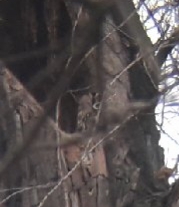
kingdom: Animalia
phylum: Chordata
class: Aves
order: Strigiformes
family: Strigidae
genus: Strix
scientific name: Strix aluco
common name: Tawny owl
